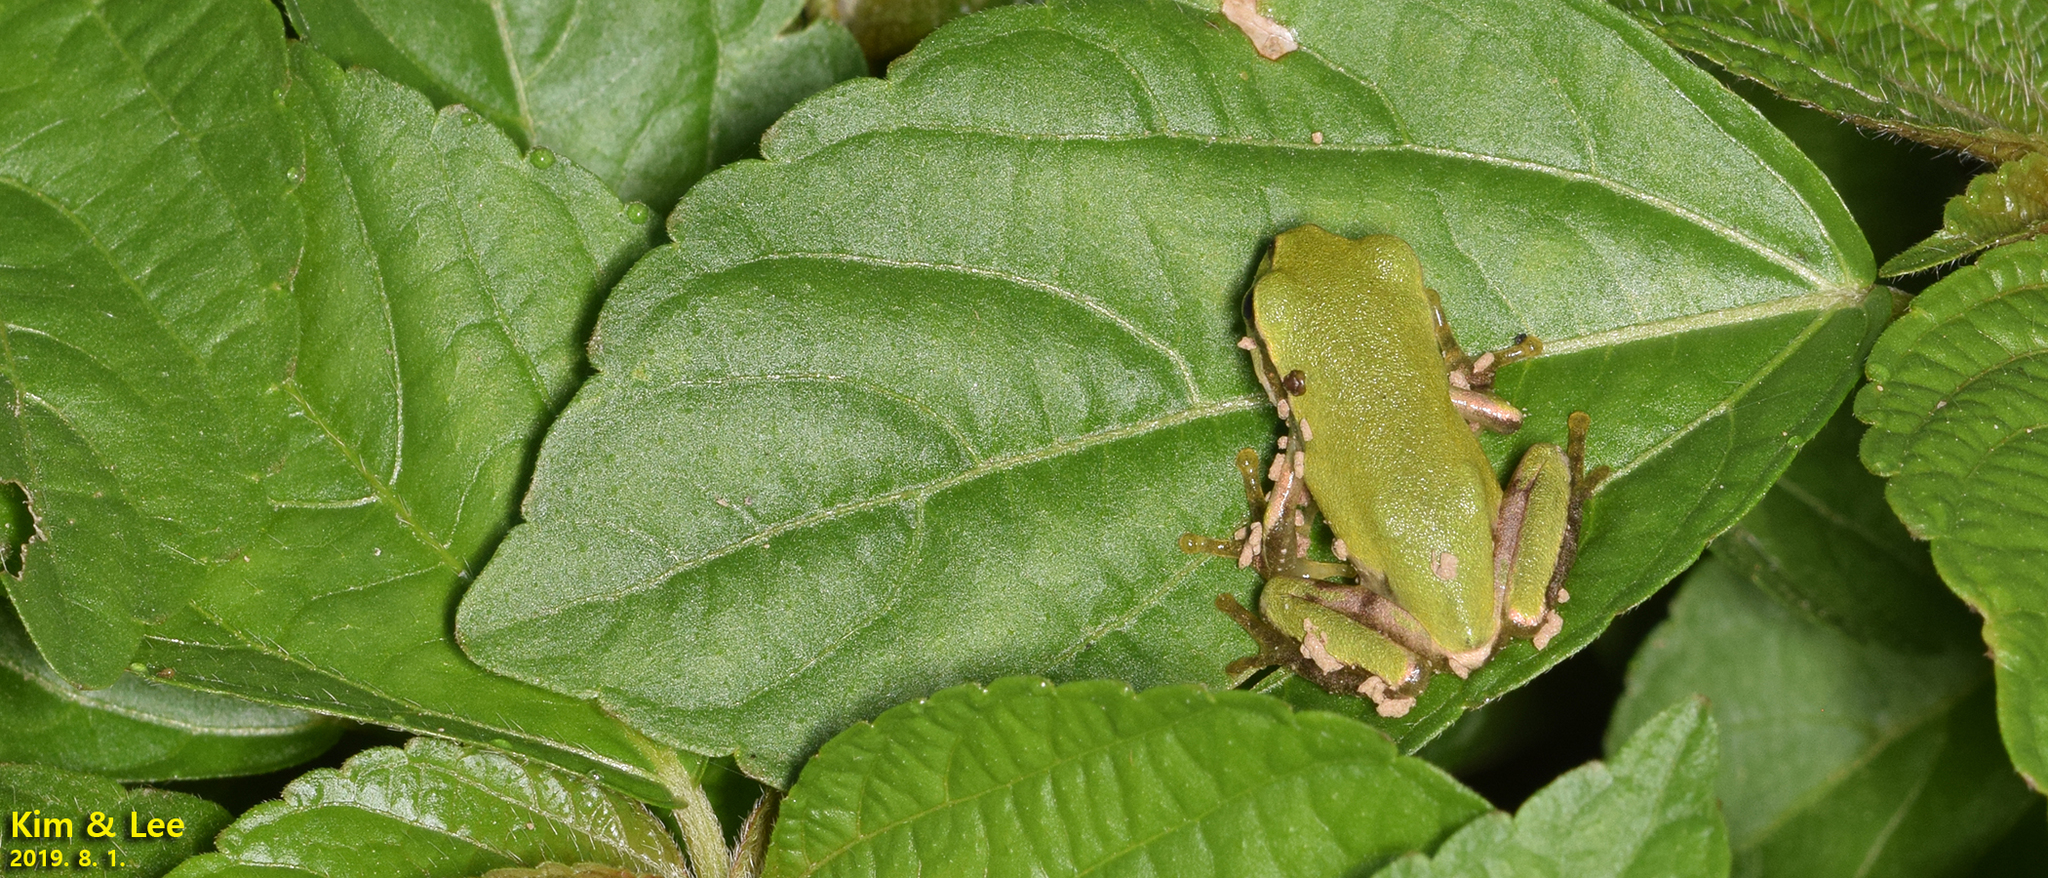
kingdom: Animalia
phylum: Chordata
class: Amphibia
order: Anura
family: Hylidae
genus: Dryophytes
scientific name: Dryophytes japonicus
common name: Japanese treefrog
